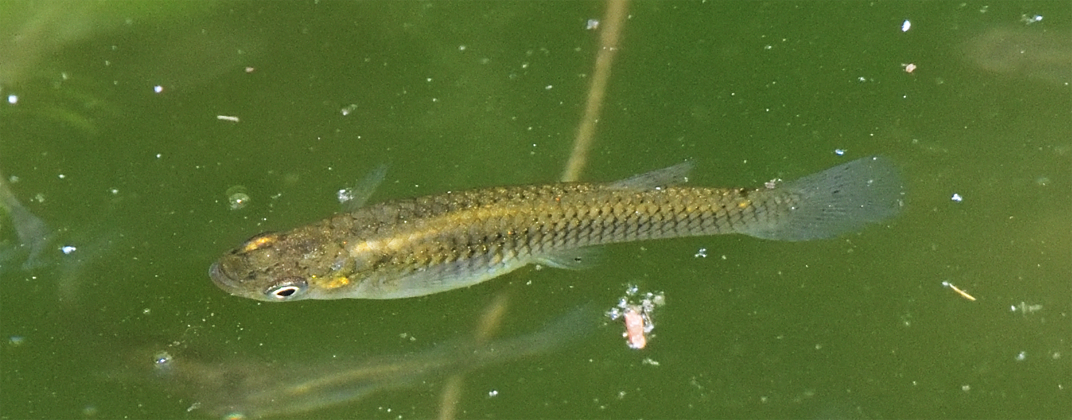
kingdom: Animalia
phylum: Chordata
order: Cyprinodontiformes
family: Poeciliidae
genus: Gambusia
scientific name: Gambusia affinis
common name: Mosquitofish
